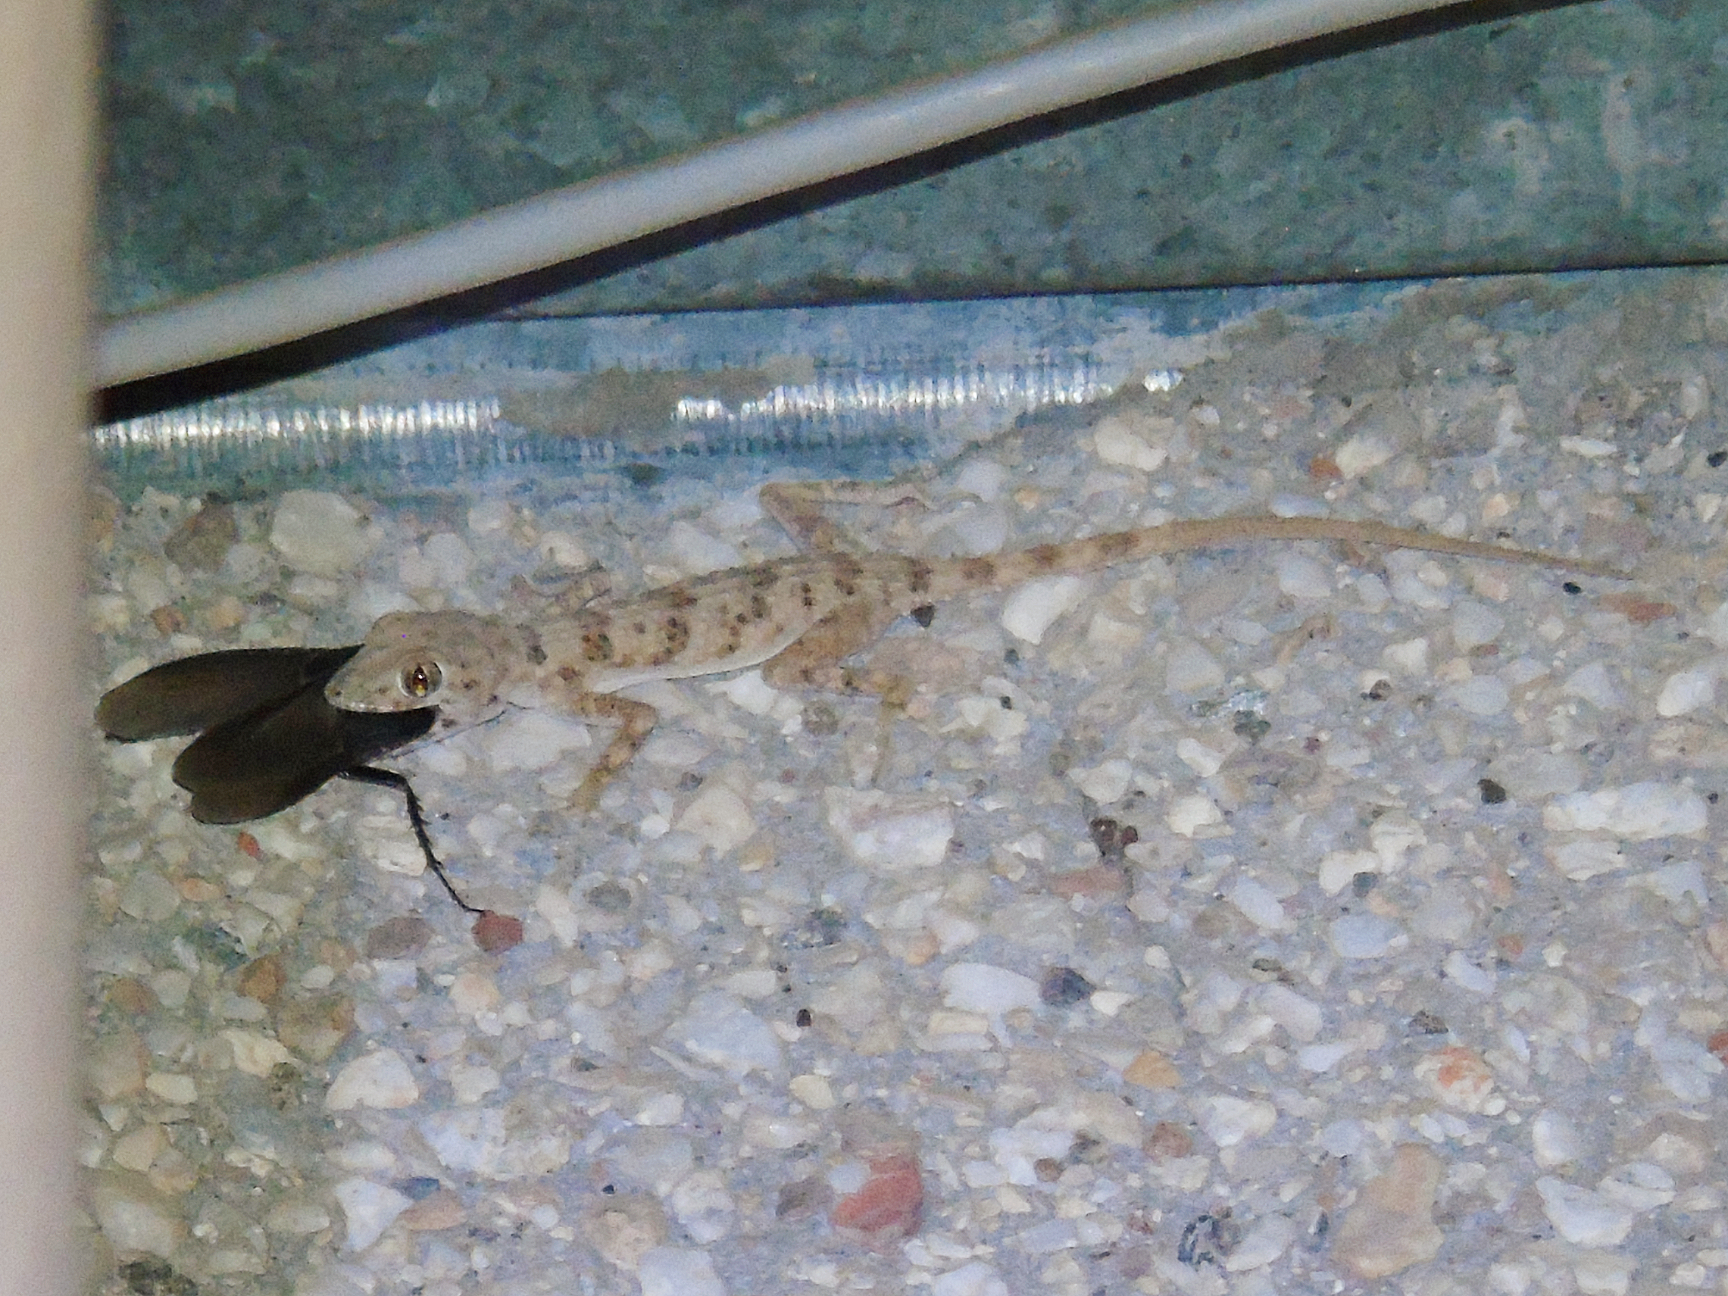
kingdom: Animalia
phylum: Chordata
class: Squamata
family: Gekkonidae
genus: Tenuidactylus
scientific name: Tenuidactylus bogdanovi
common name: Bogdanov’s thin-toed gecko
